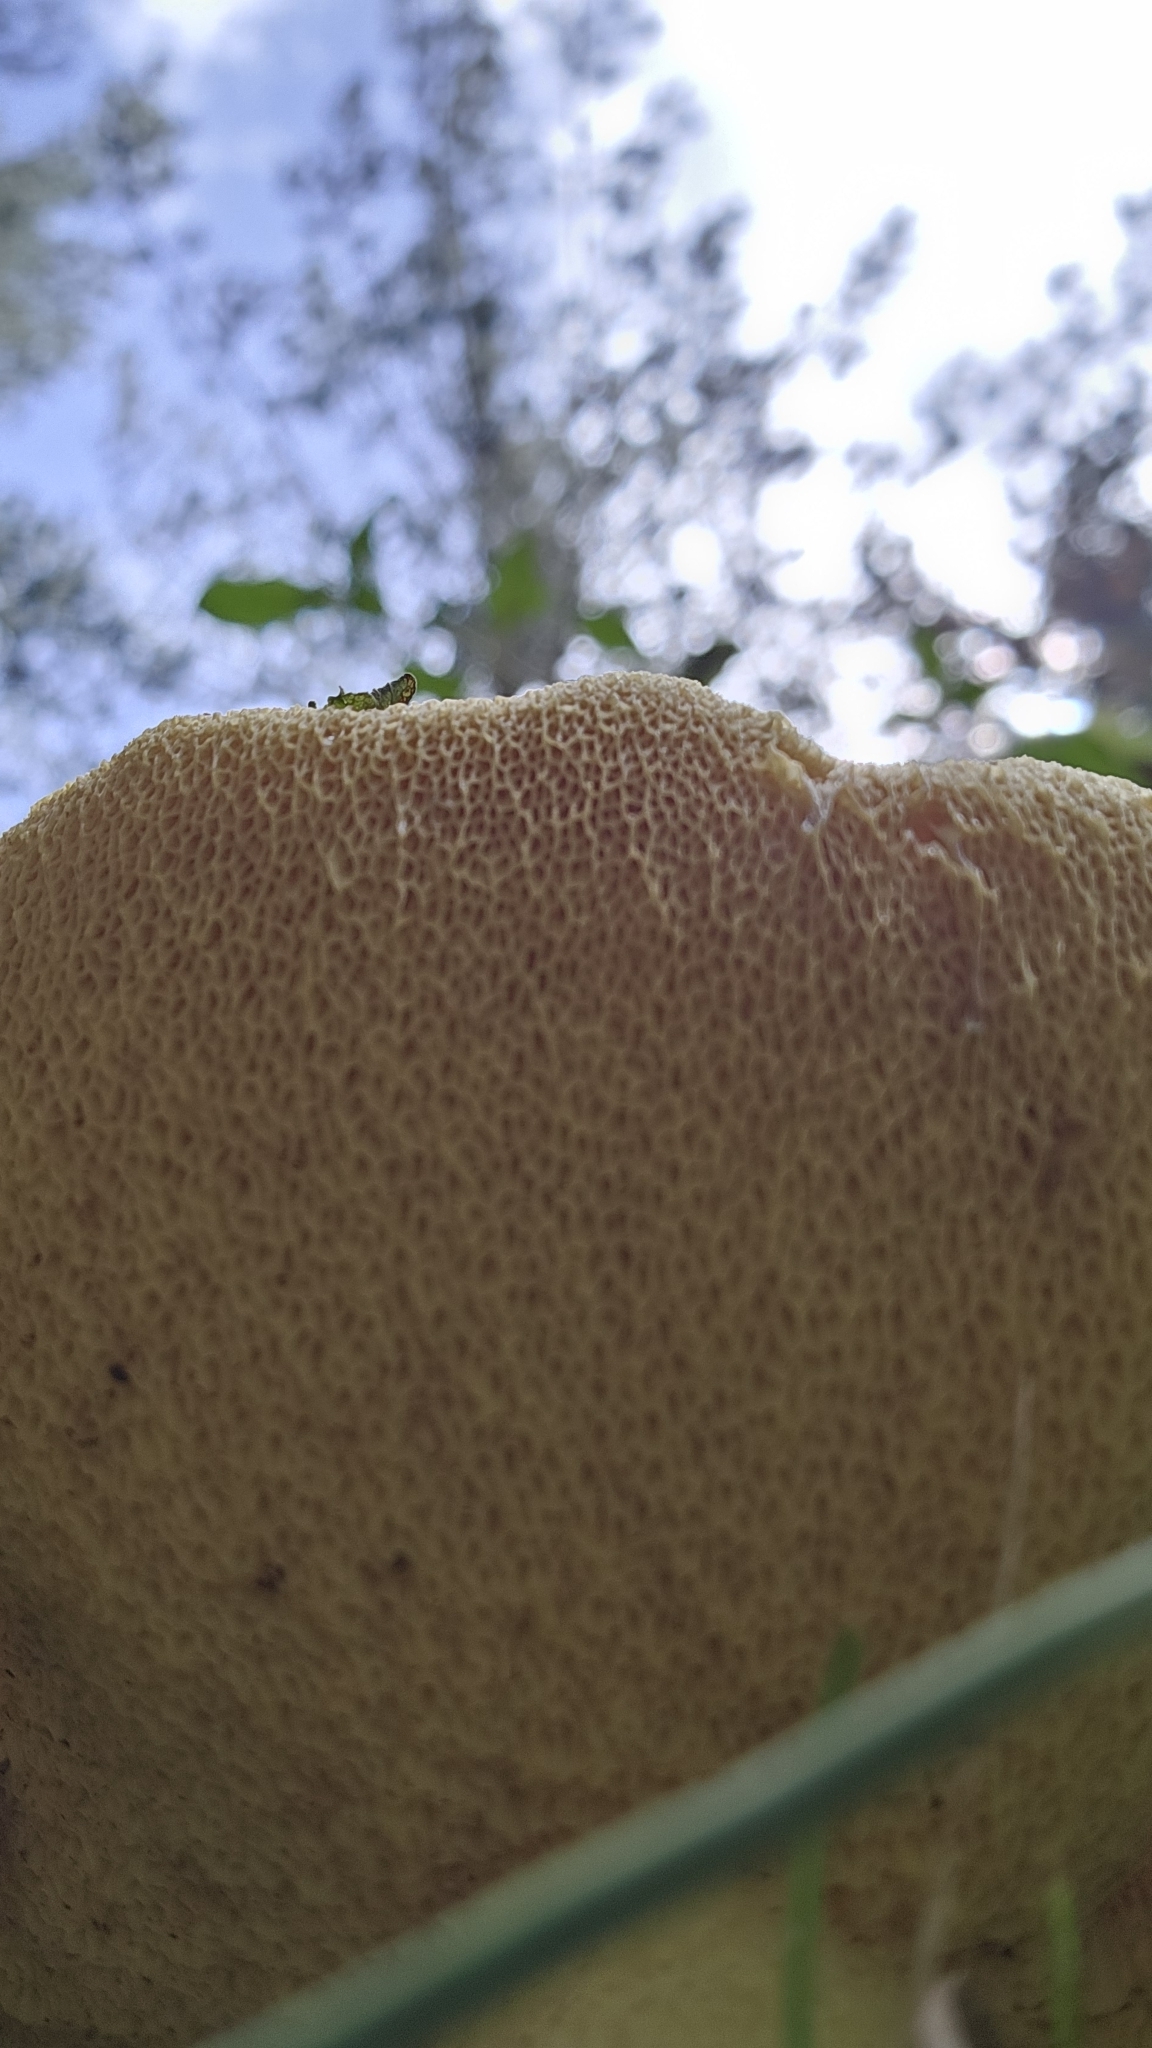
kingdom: Fungi
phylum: Basidiomycota
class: Agaricomycetes
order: Boletales
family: Suillaceae
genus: Suillus
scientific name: Suillus granulatus
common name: Weeping bolete
